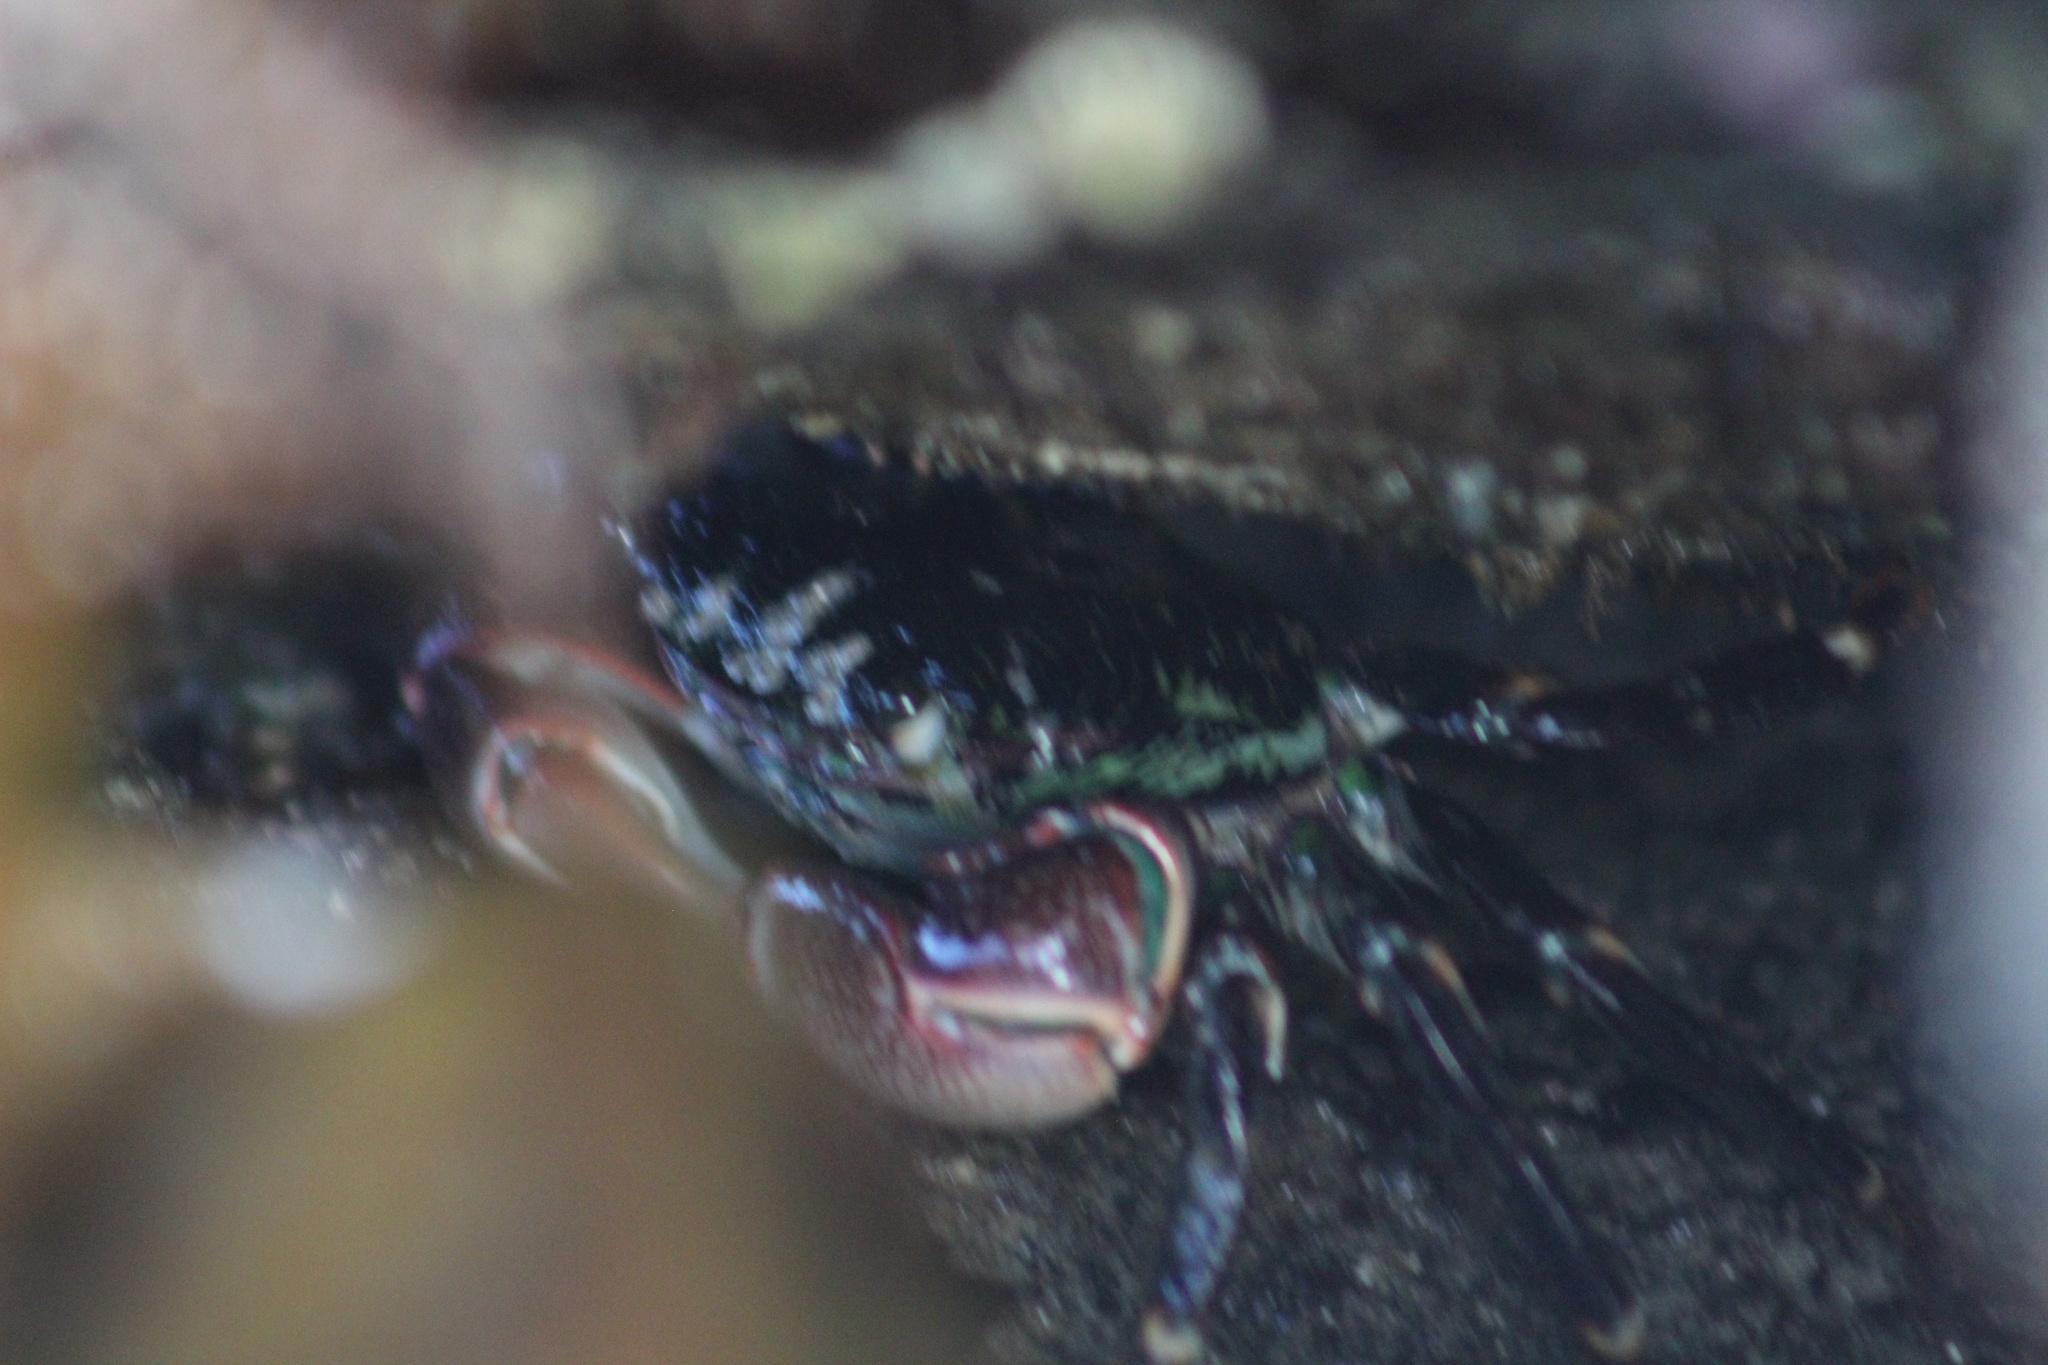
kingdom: Animalia
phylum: Arthropoda
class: Malacostraca
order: Decapoda
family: Grapsidae
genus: Pachygrapsus
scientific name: Pachygrapsus crassipes
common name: Striped shore crab
